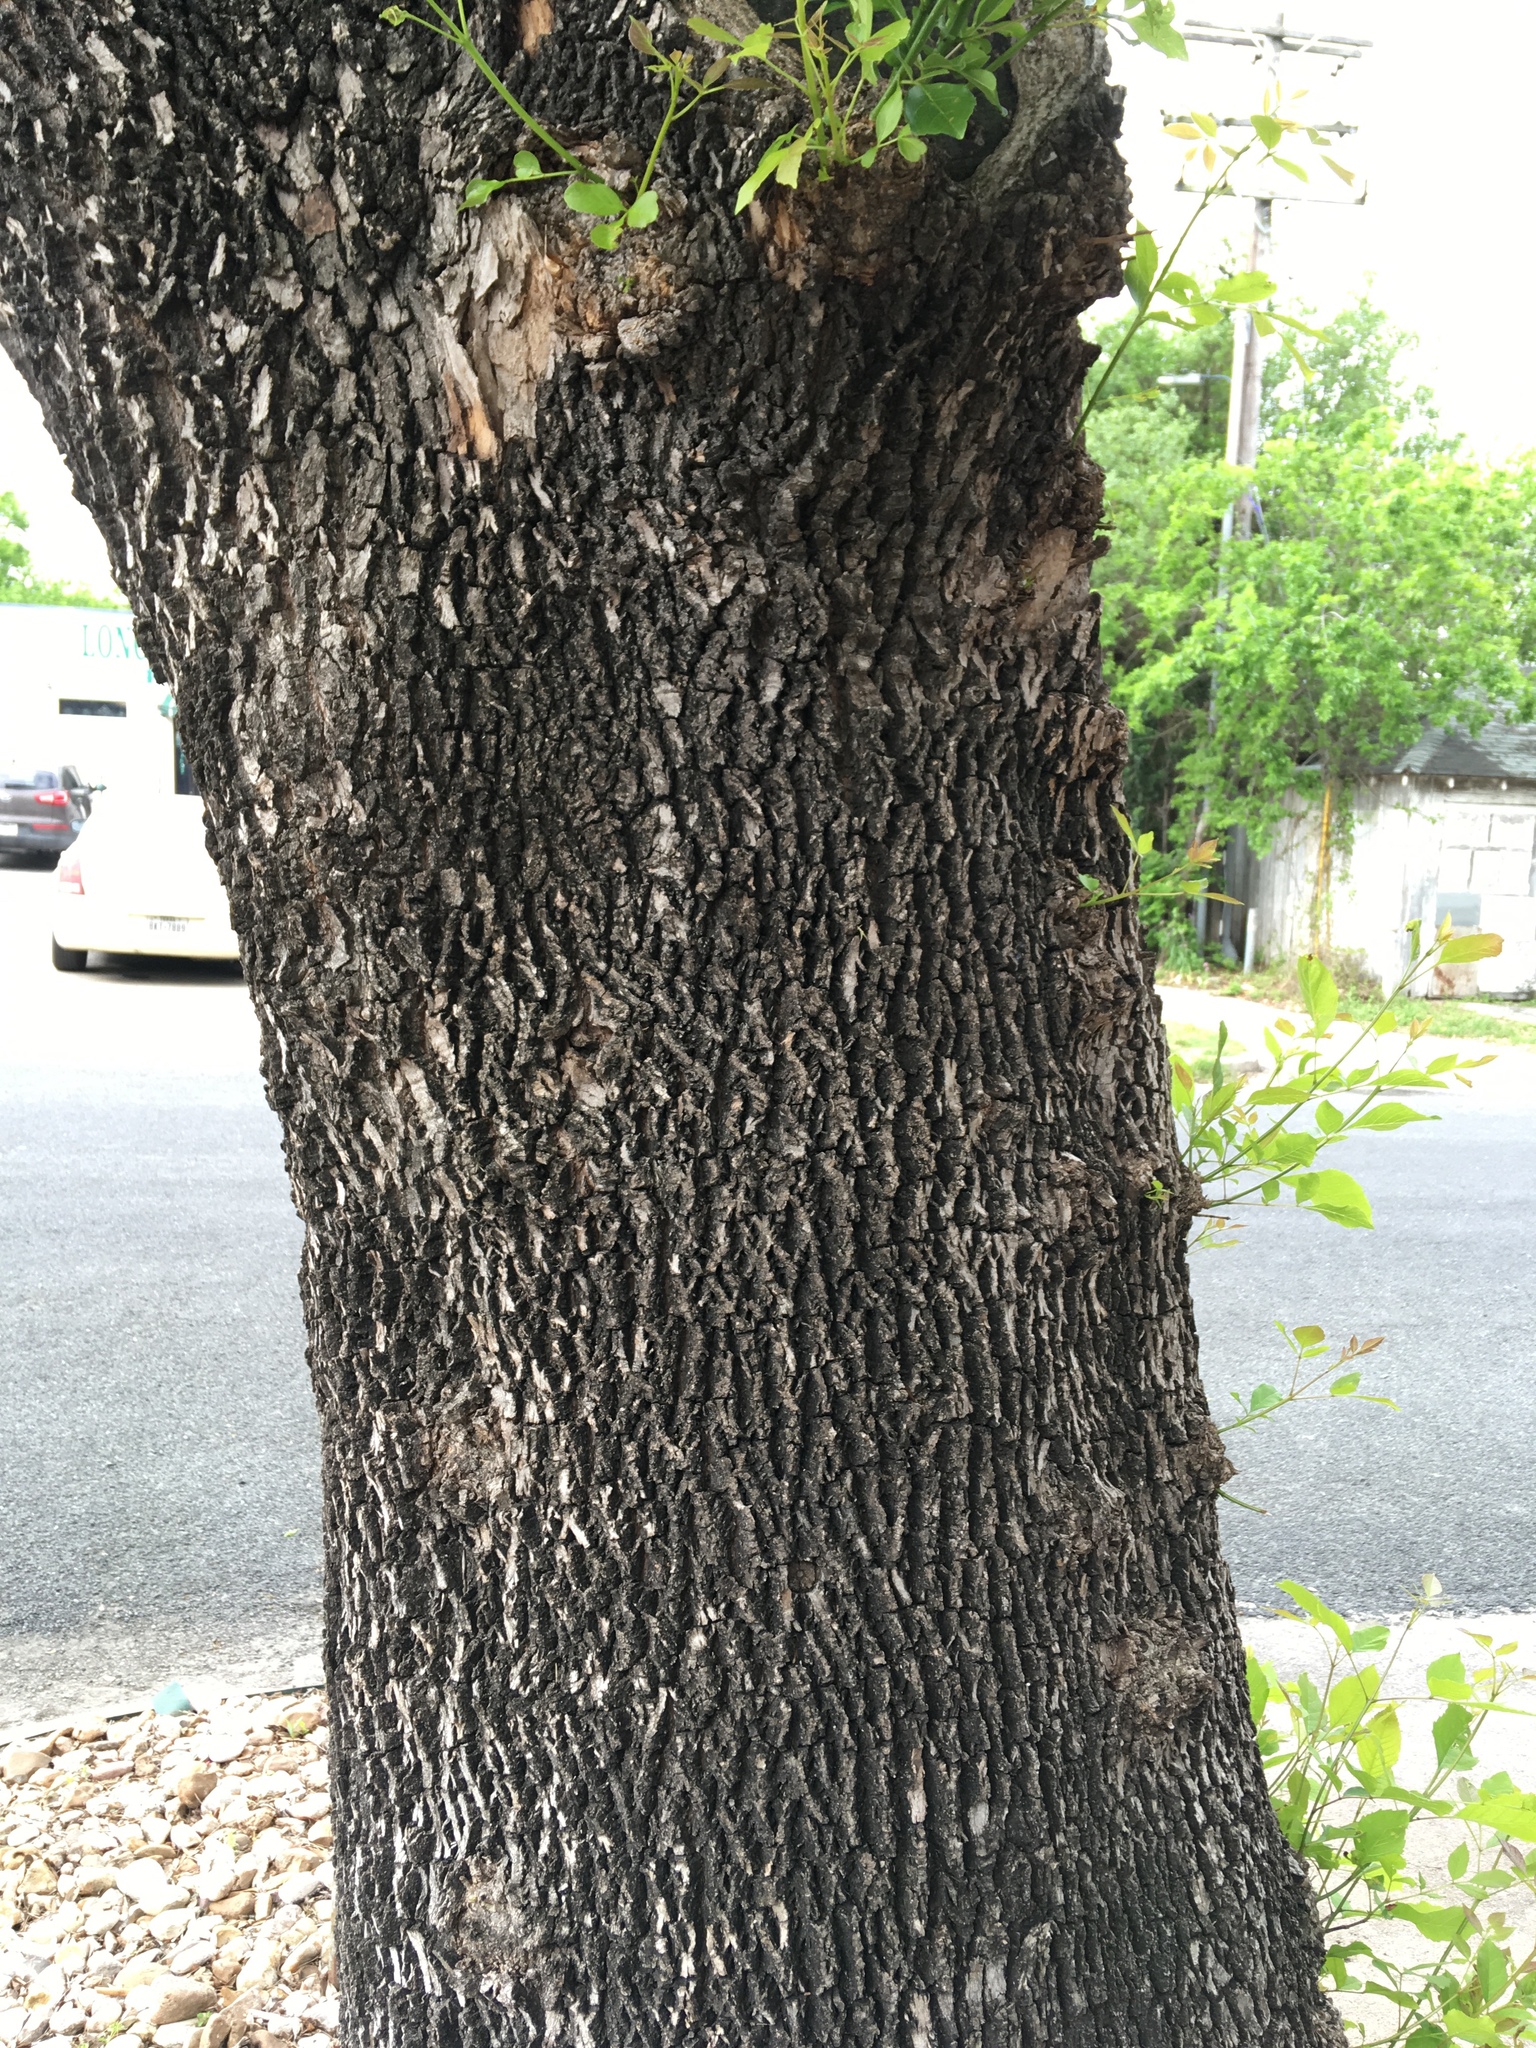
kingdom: Plantae
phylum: Tracheophyta
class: Magnoliopsida
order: Lamiales
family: Oleaceae
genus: Fraxinus
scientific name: Fraxinus velutina
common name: Arizon ash
